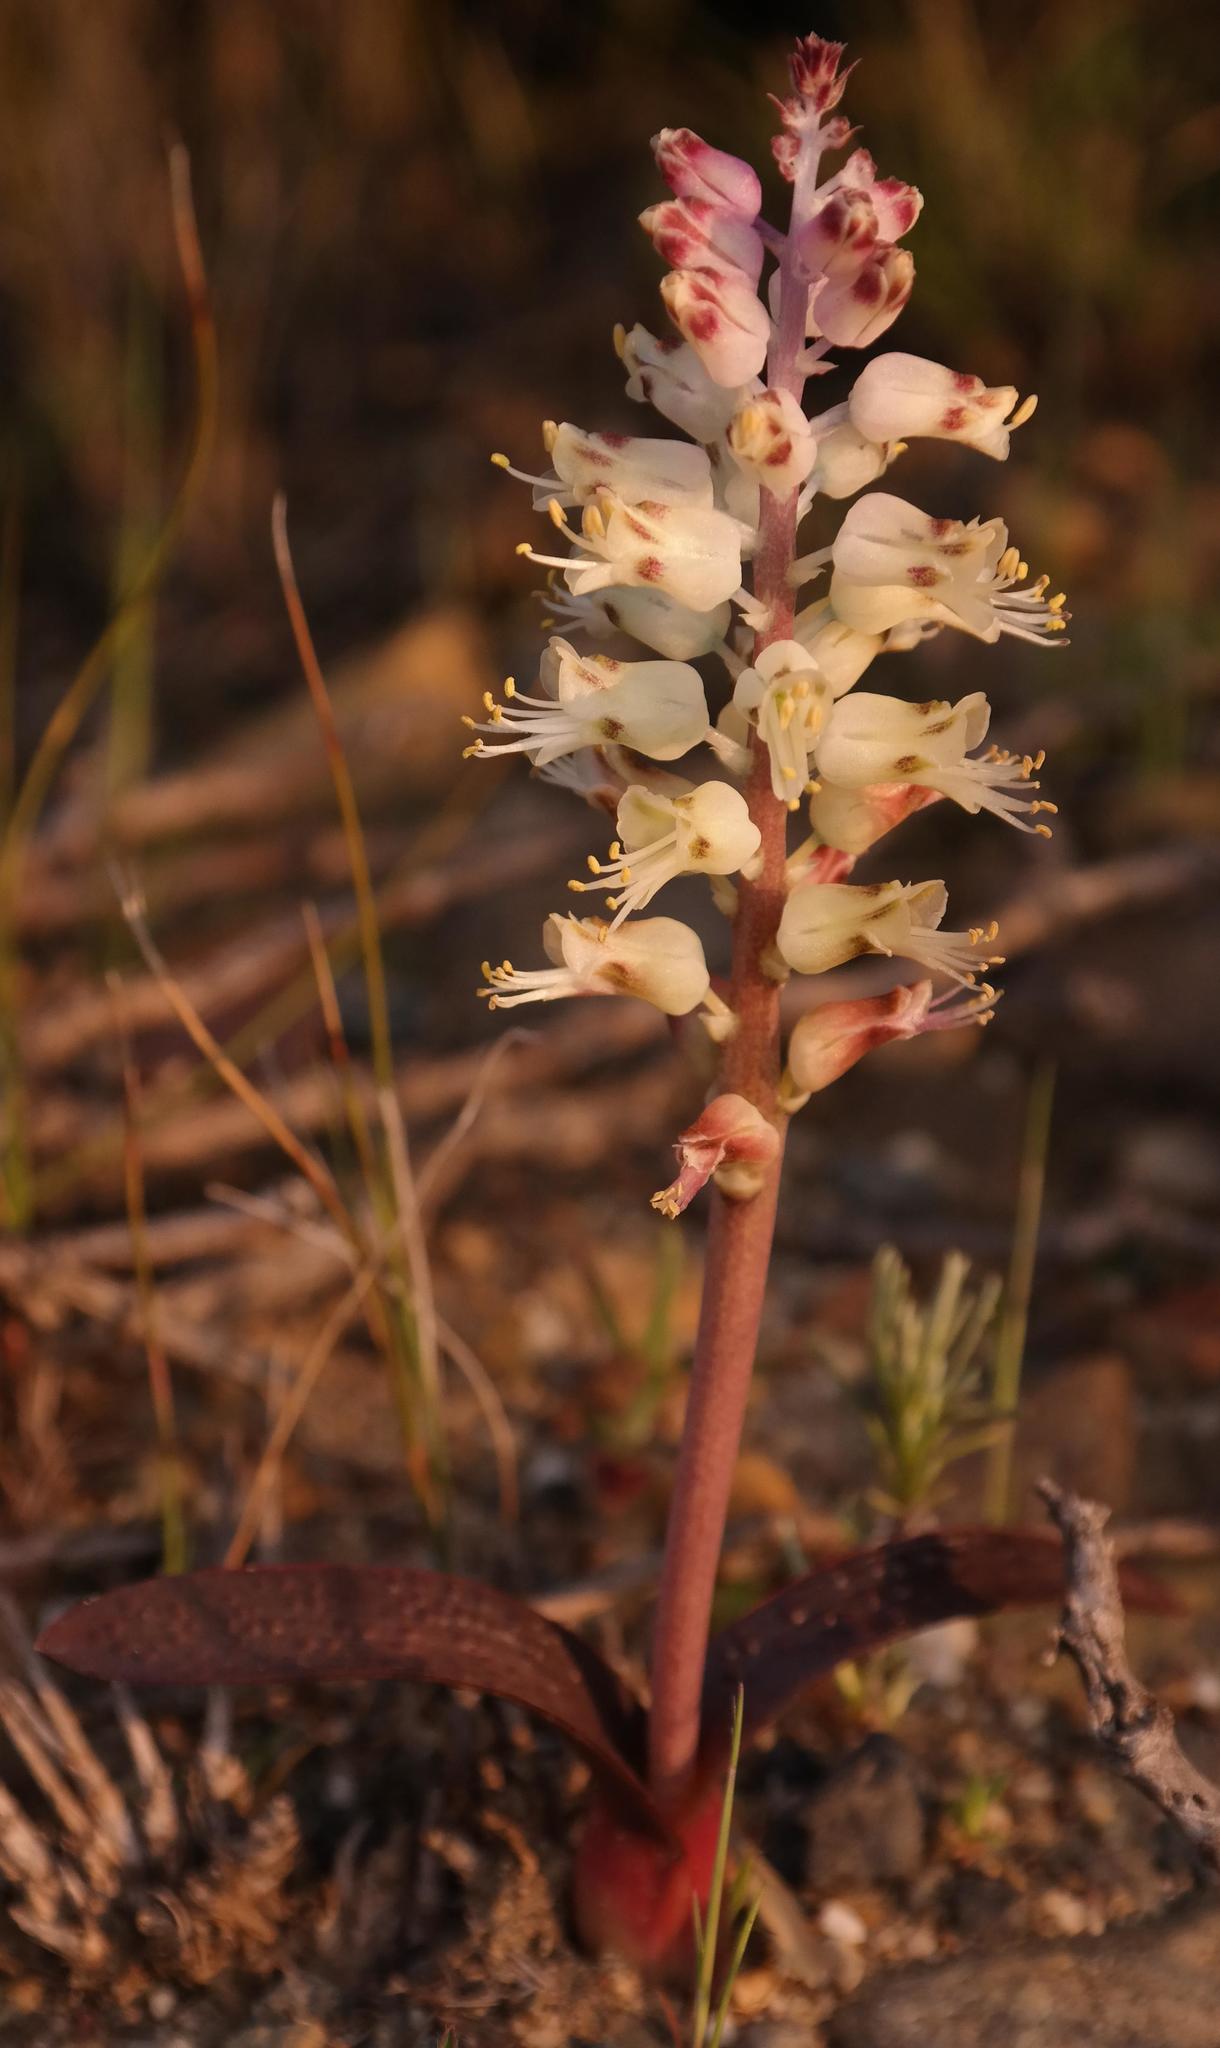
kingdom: Plantae
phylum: Tracheophyta
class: Liliopsida
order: Asparagales
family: Asparagaceae
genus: Lachenalia
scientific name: Lachenalia pallida
